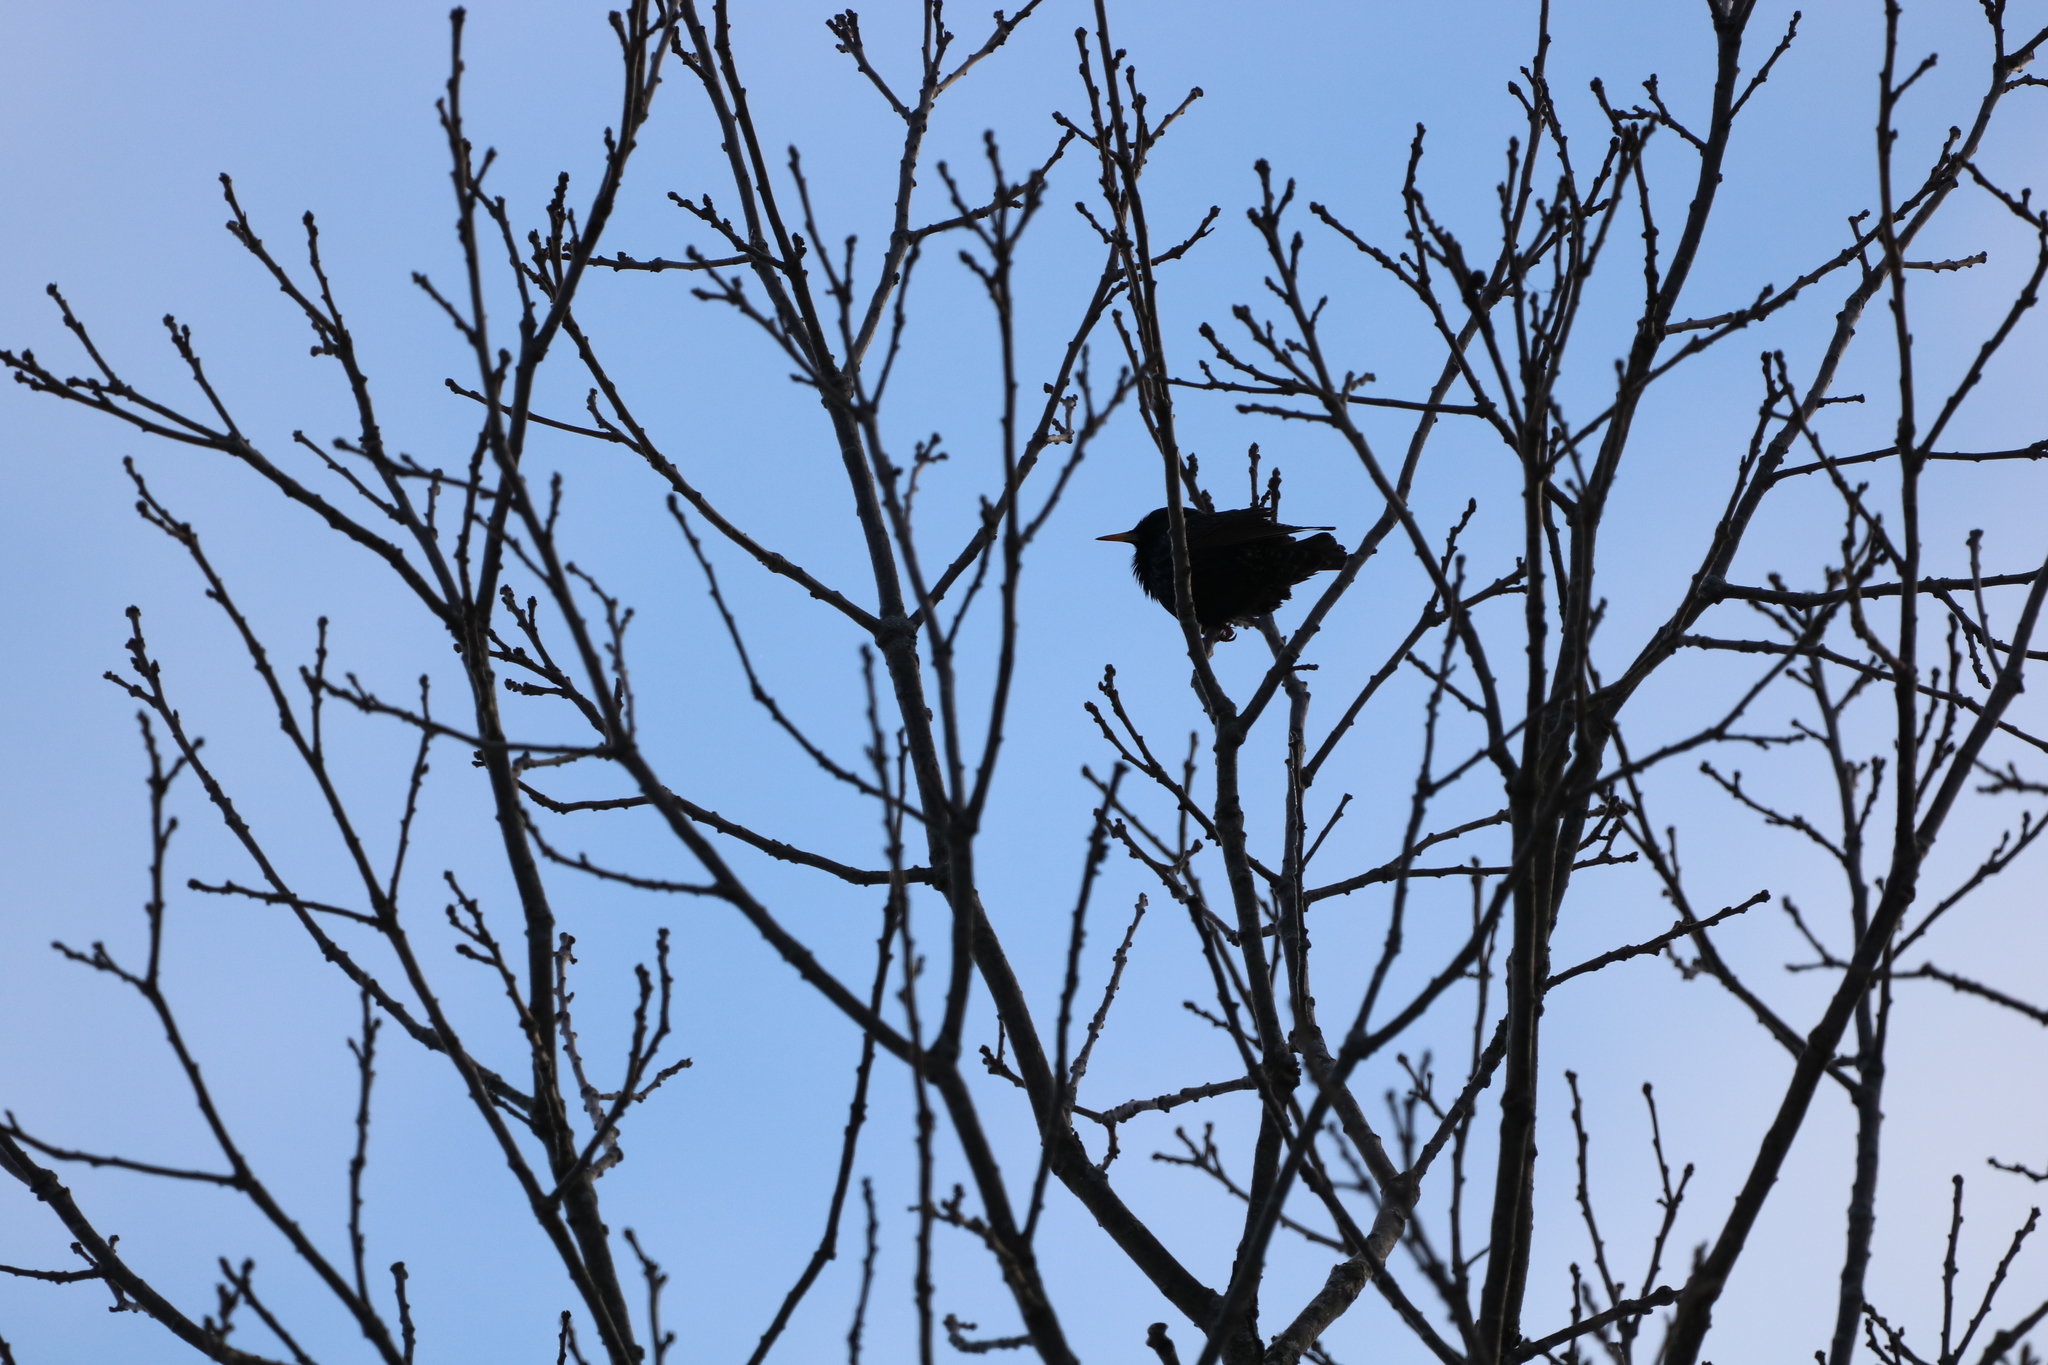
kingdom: Animalia
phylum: Chordata
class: Aves
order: Passeriformes
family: Sturnidae
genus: Sturnus
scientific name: Sturnus vulgaris
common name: Common starling
